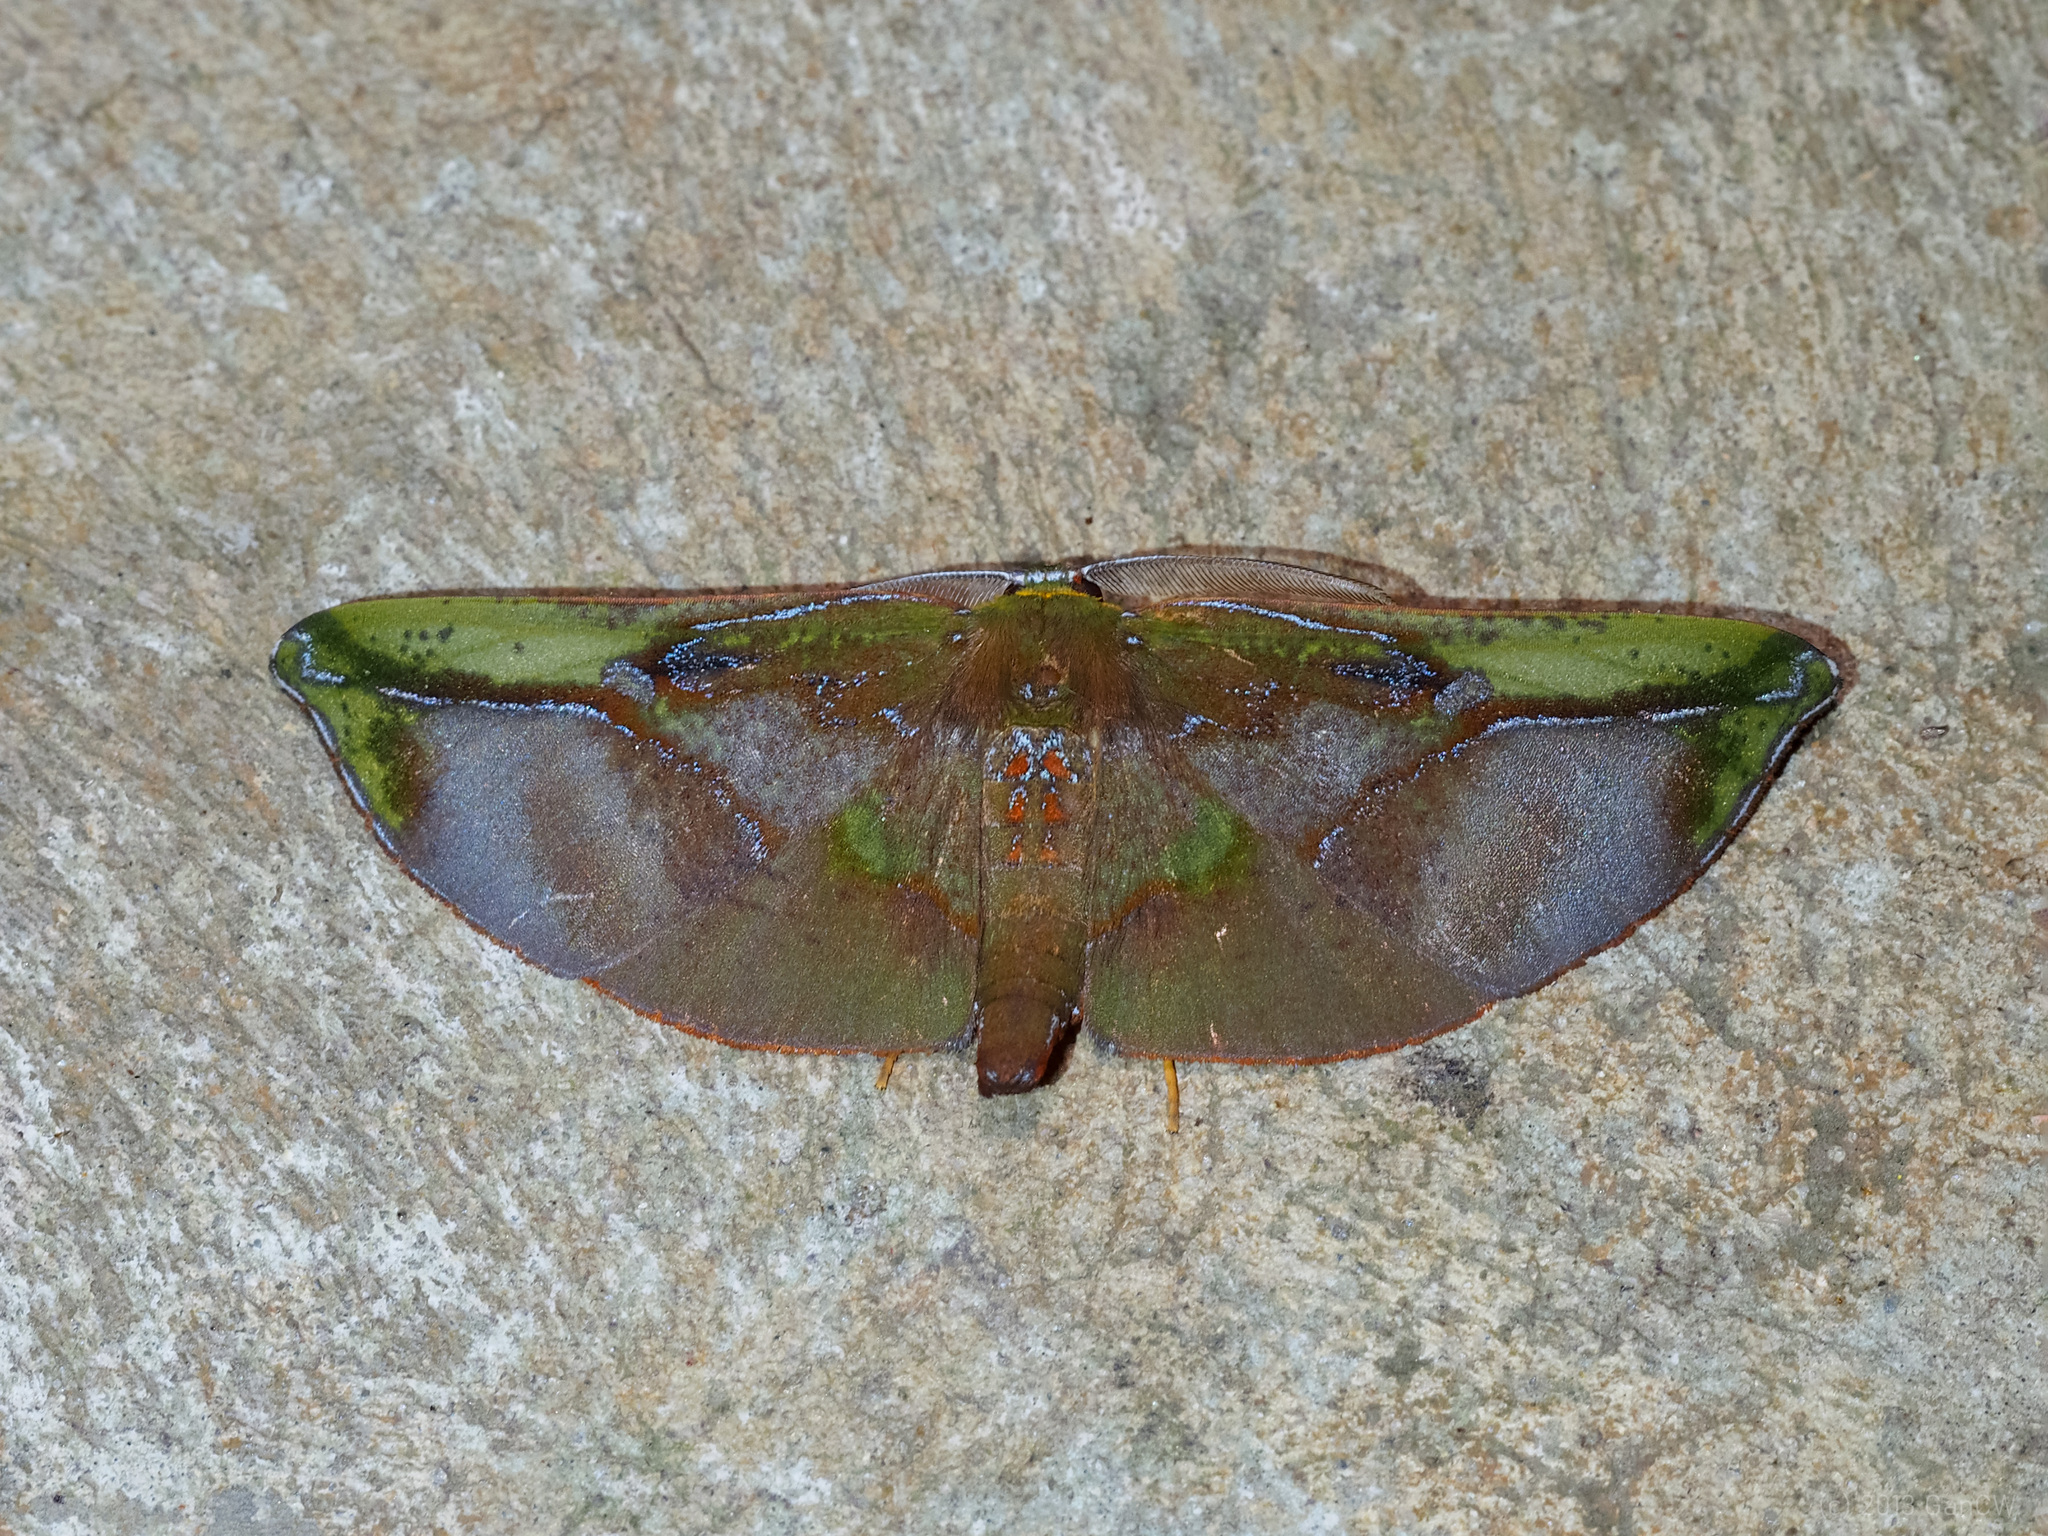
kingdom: Animalia
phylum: Arthropoda
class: Insecta
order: Lepidoptera
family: Geometridae
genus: Omiza
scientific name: Omiza lycoraria
